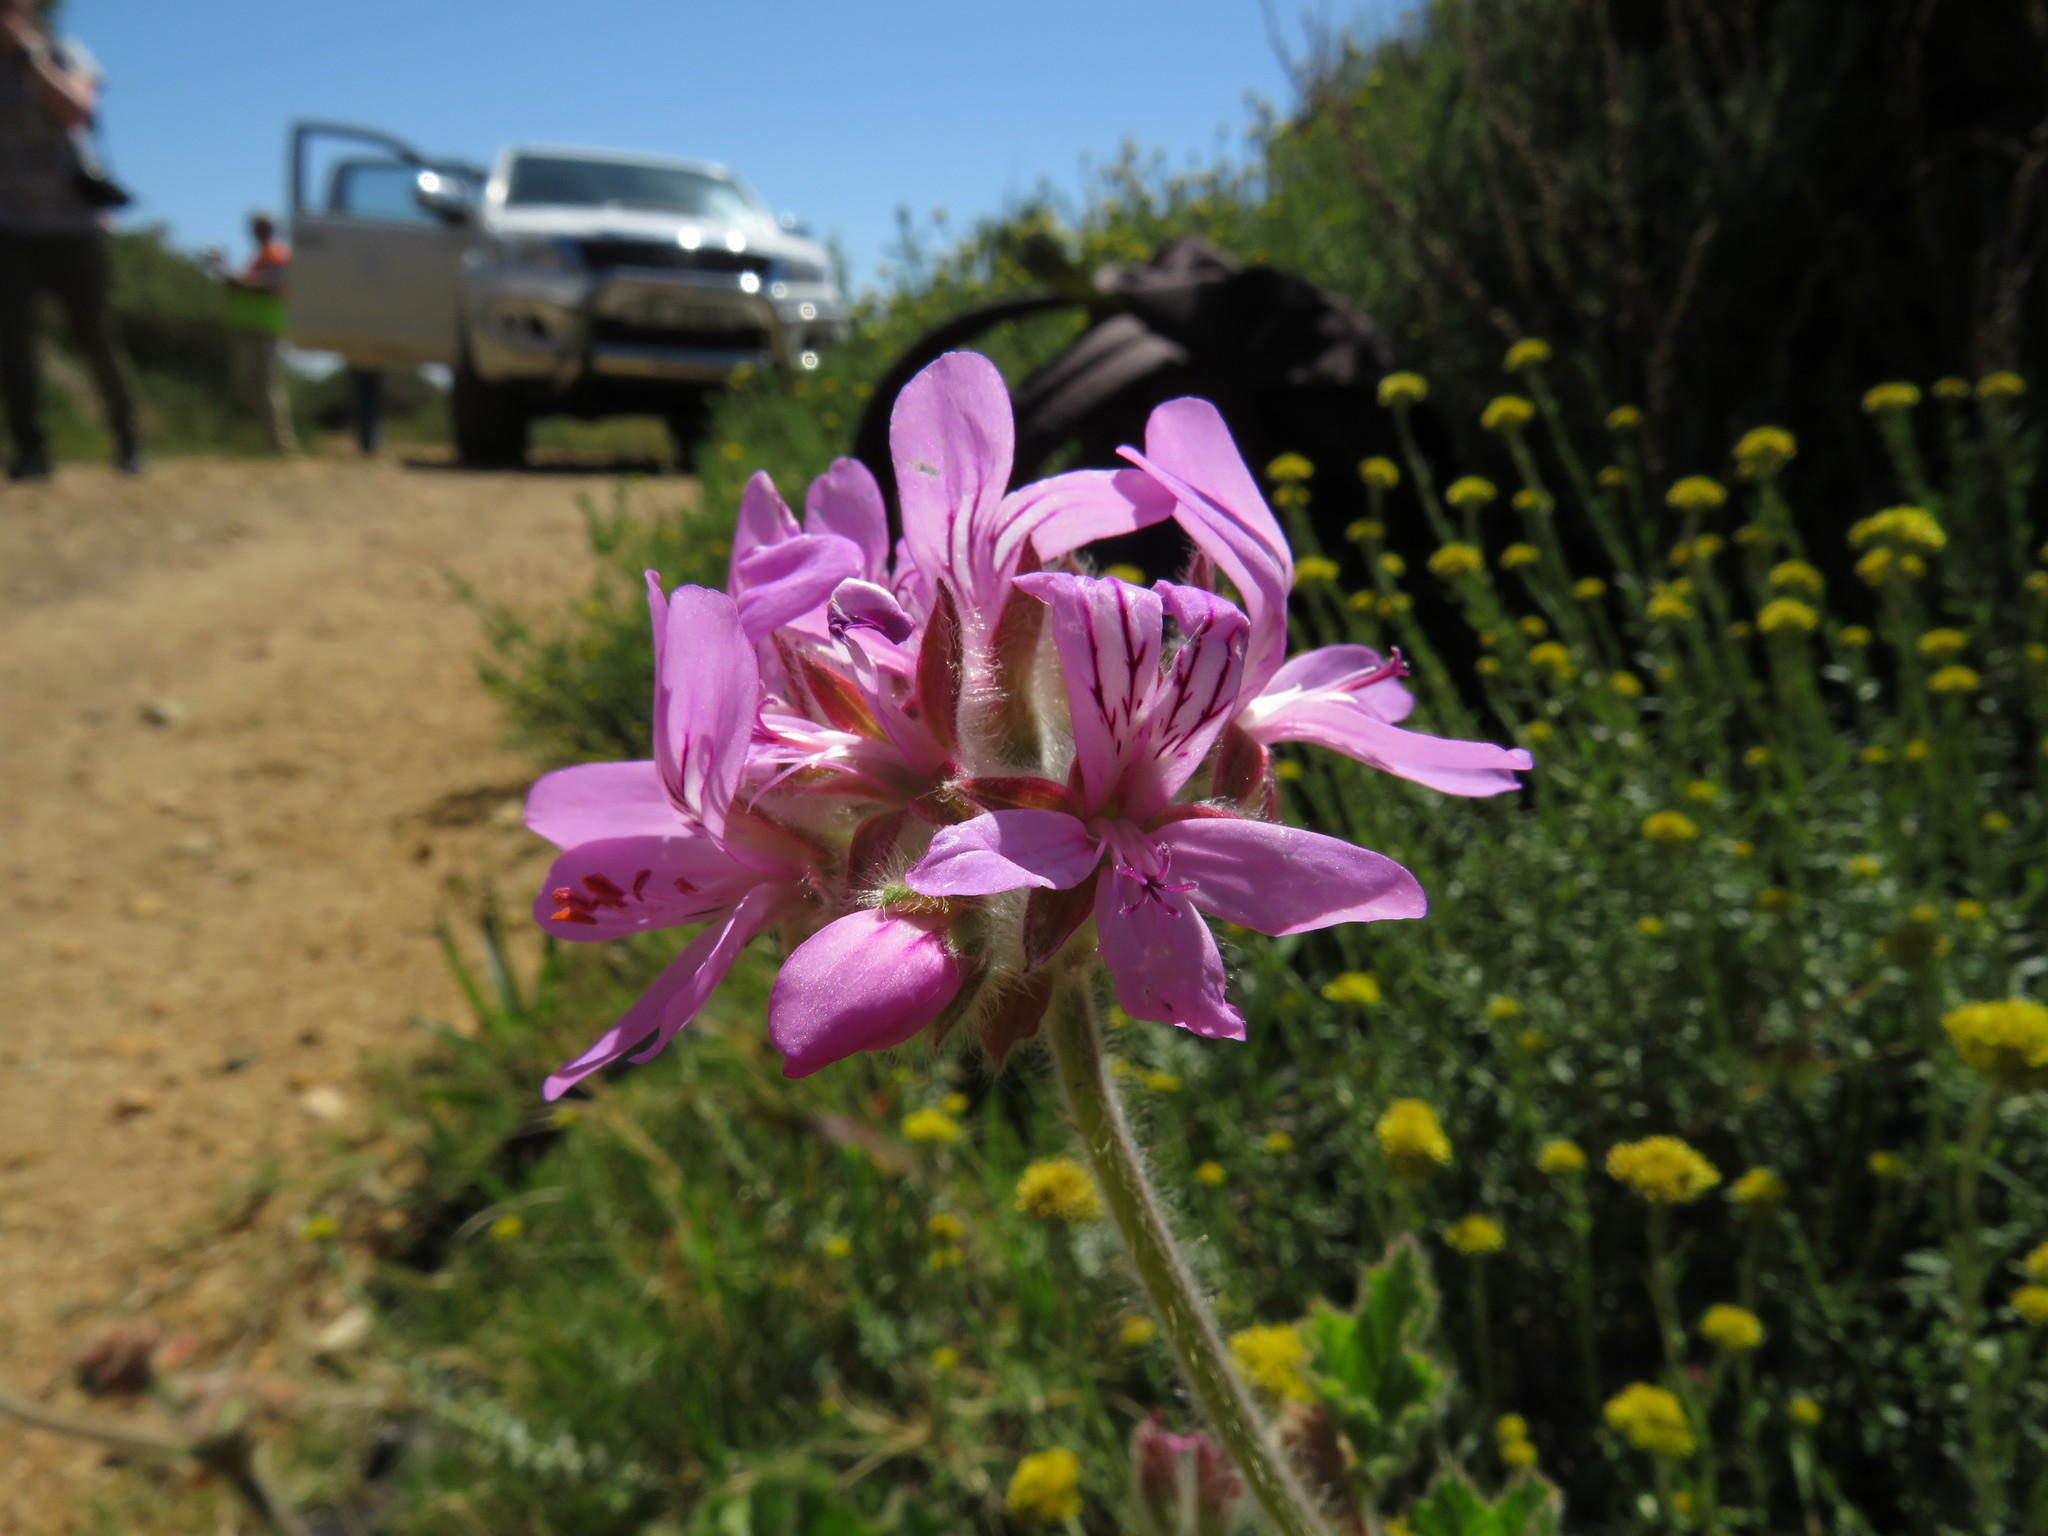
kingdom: Plantae
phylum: Tracheophyta
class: Magnoliopsida
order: Geraniales
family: Geraniaceae
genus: Pelargonium
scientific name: Pelargonium capitatum
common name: Rose scented geranium
